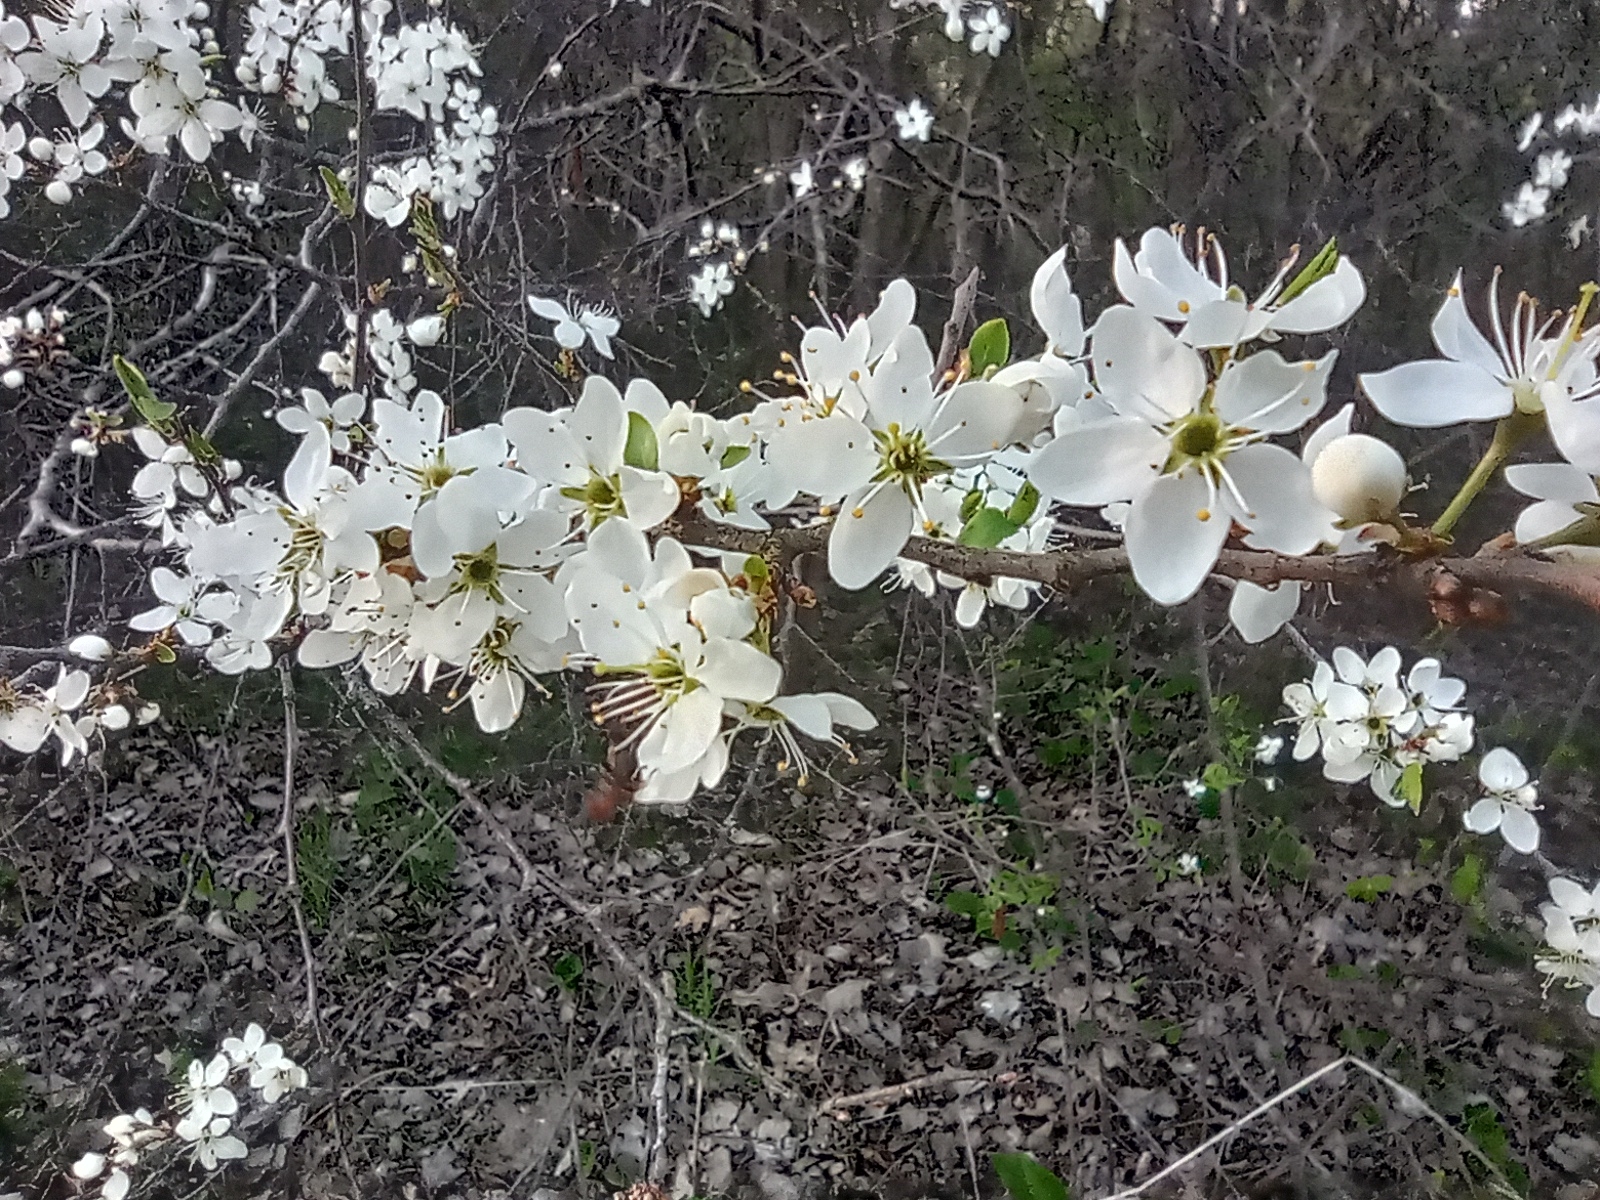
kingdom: Plantae
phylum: Tracheophyta
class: Magnoliopsida
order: Rosales
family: Rosaceae
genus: Prunus
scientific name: Prunus spinosa
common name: Blackthorn
